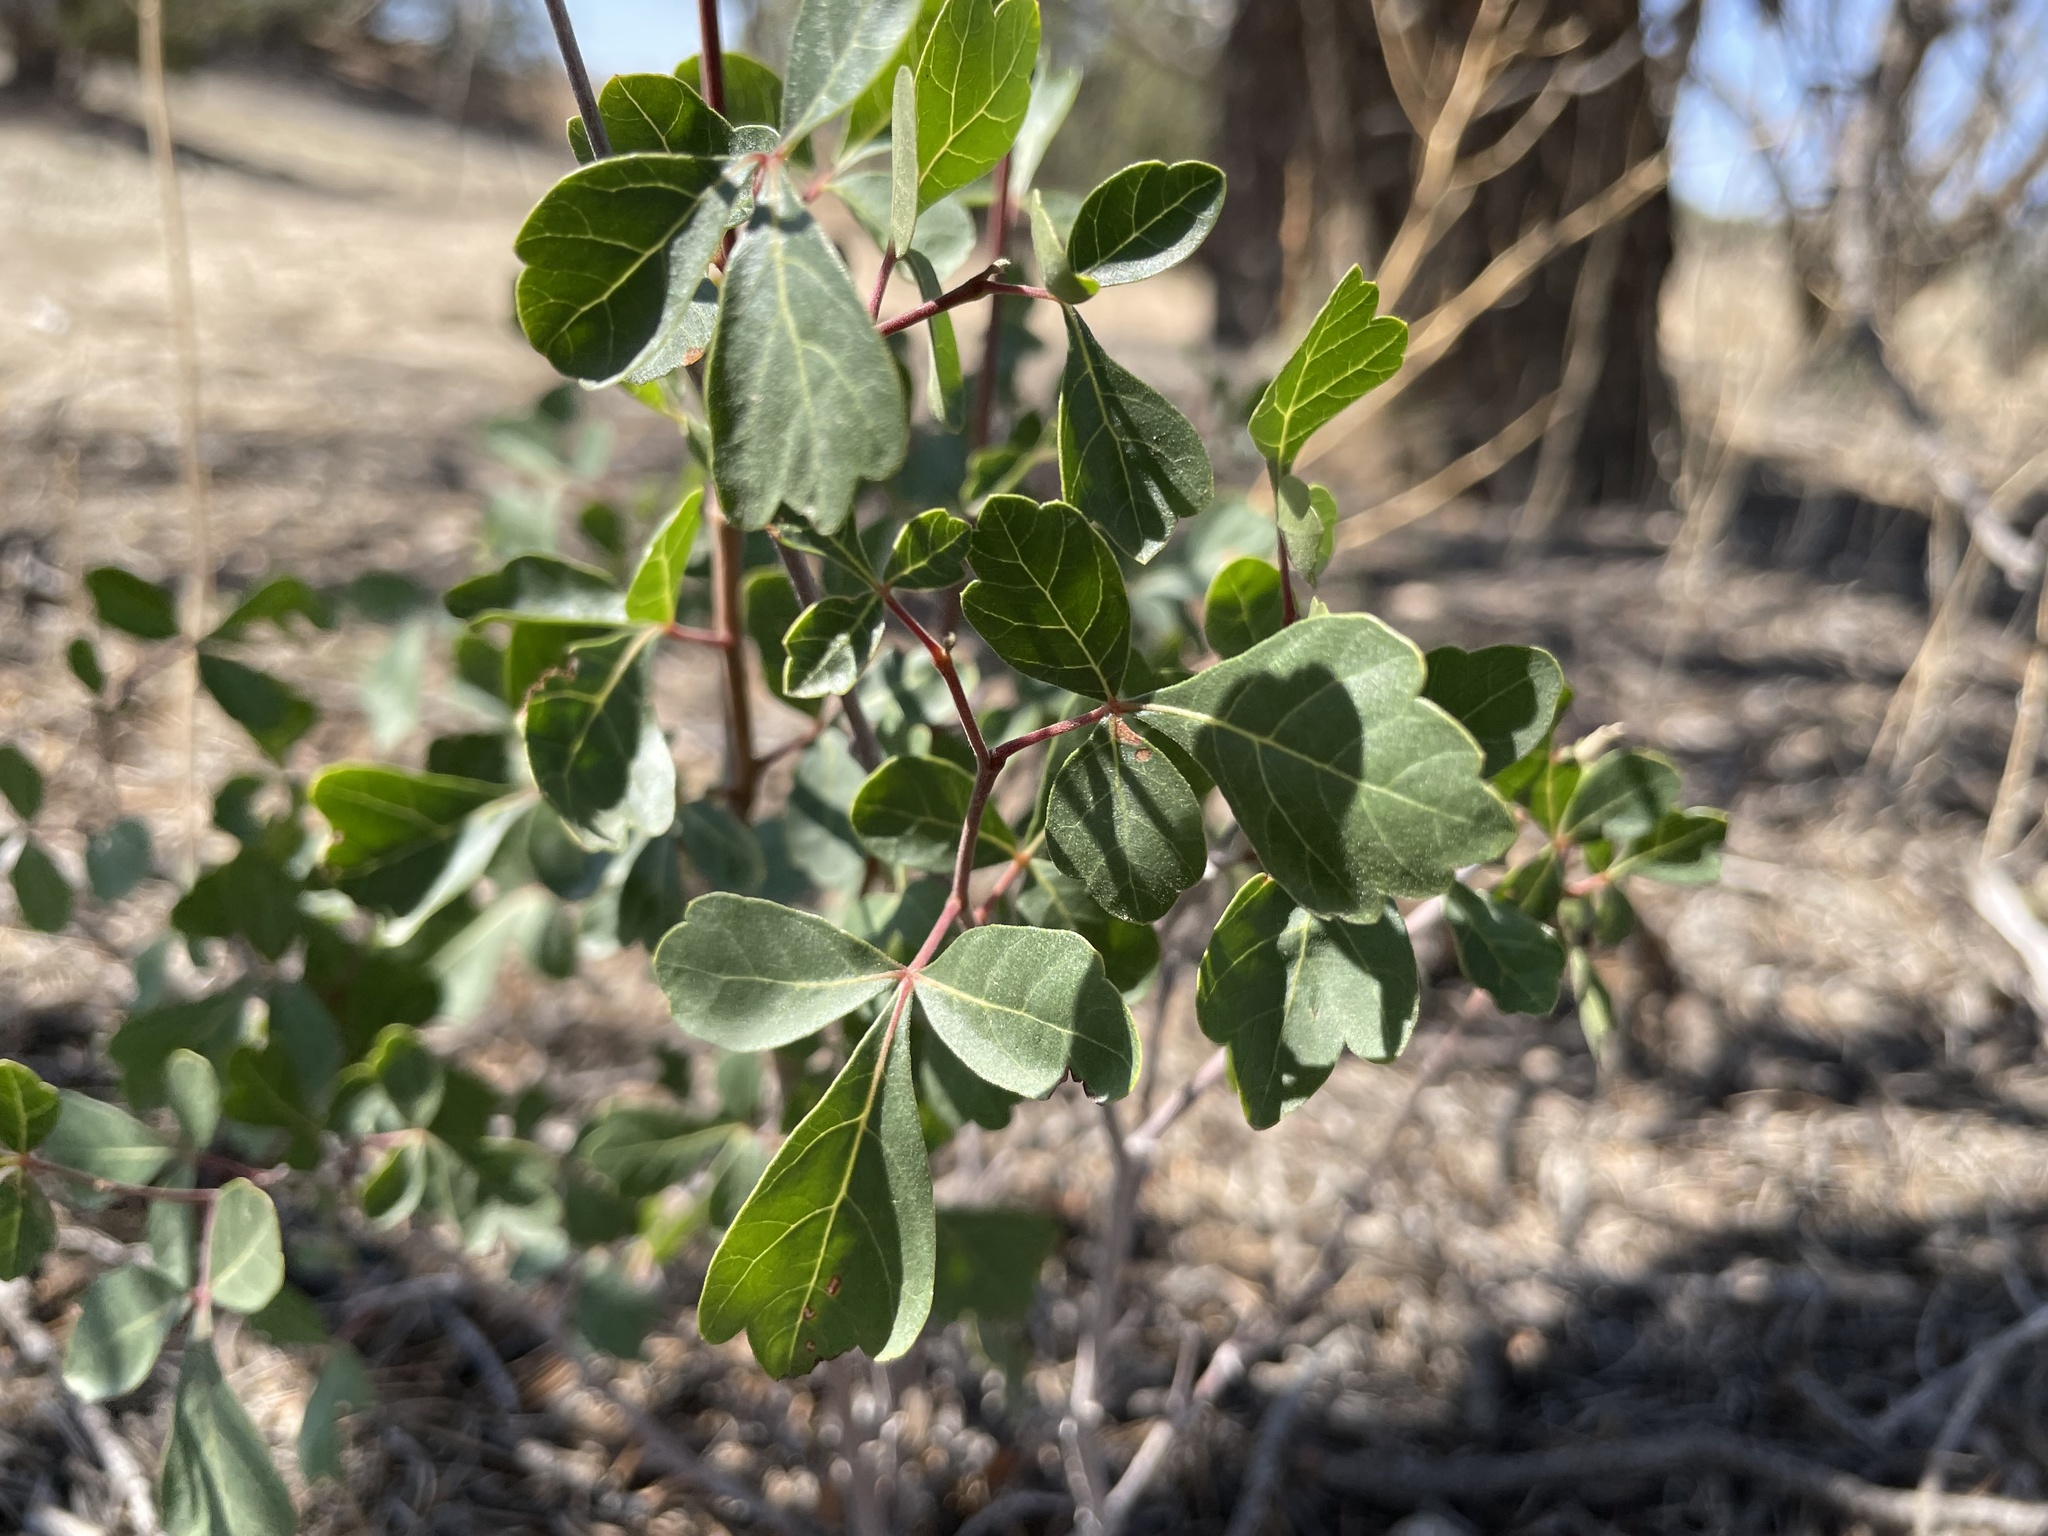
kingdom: Plantae
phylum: Tracheophyta
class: Magnoliopsida
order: Sapindales
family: Anacardiaceae
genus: Rhus
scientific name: Rhus trilobata
